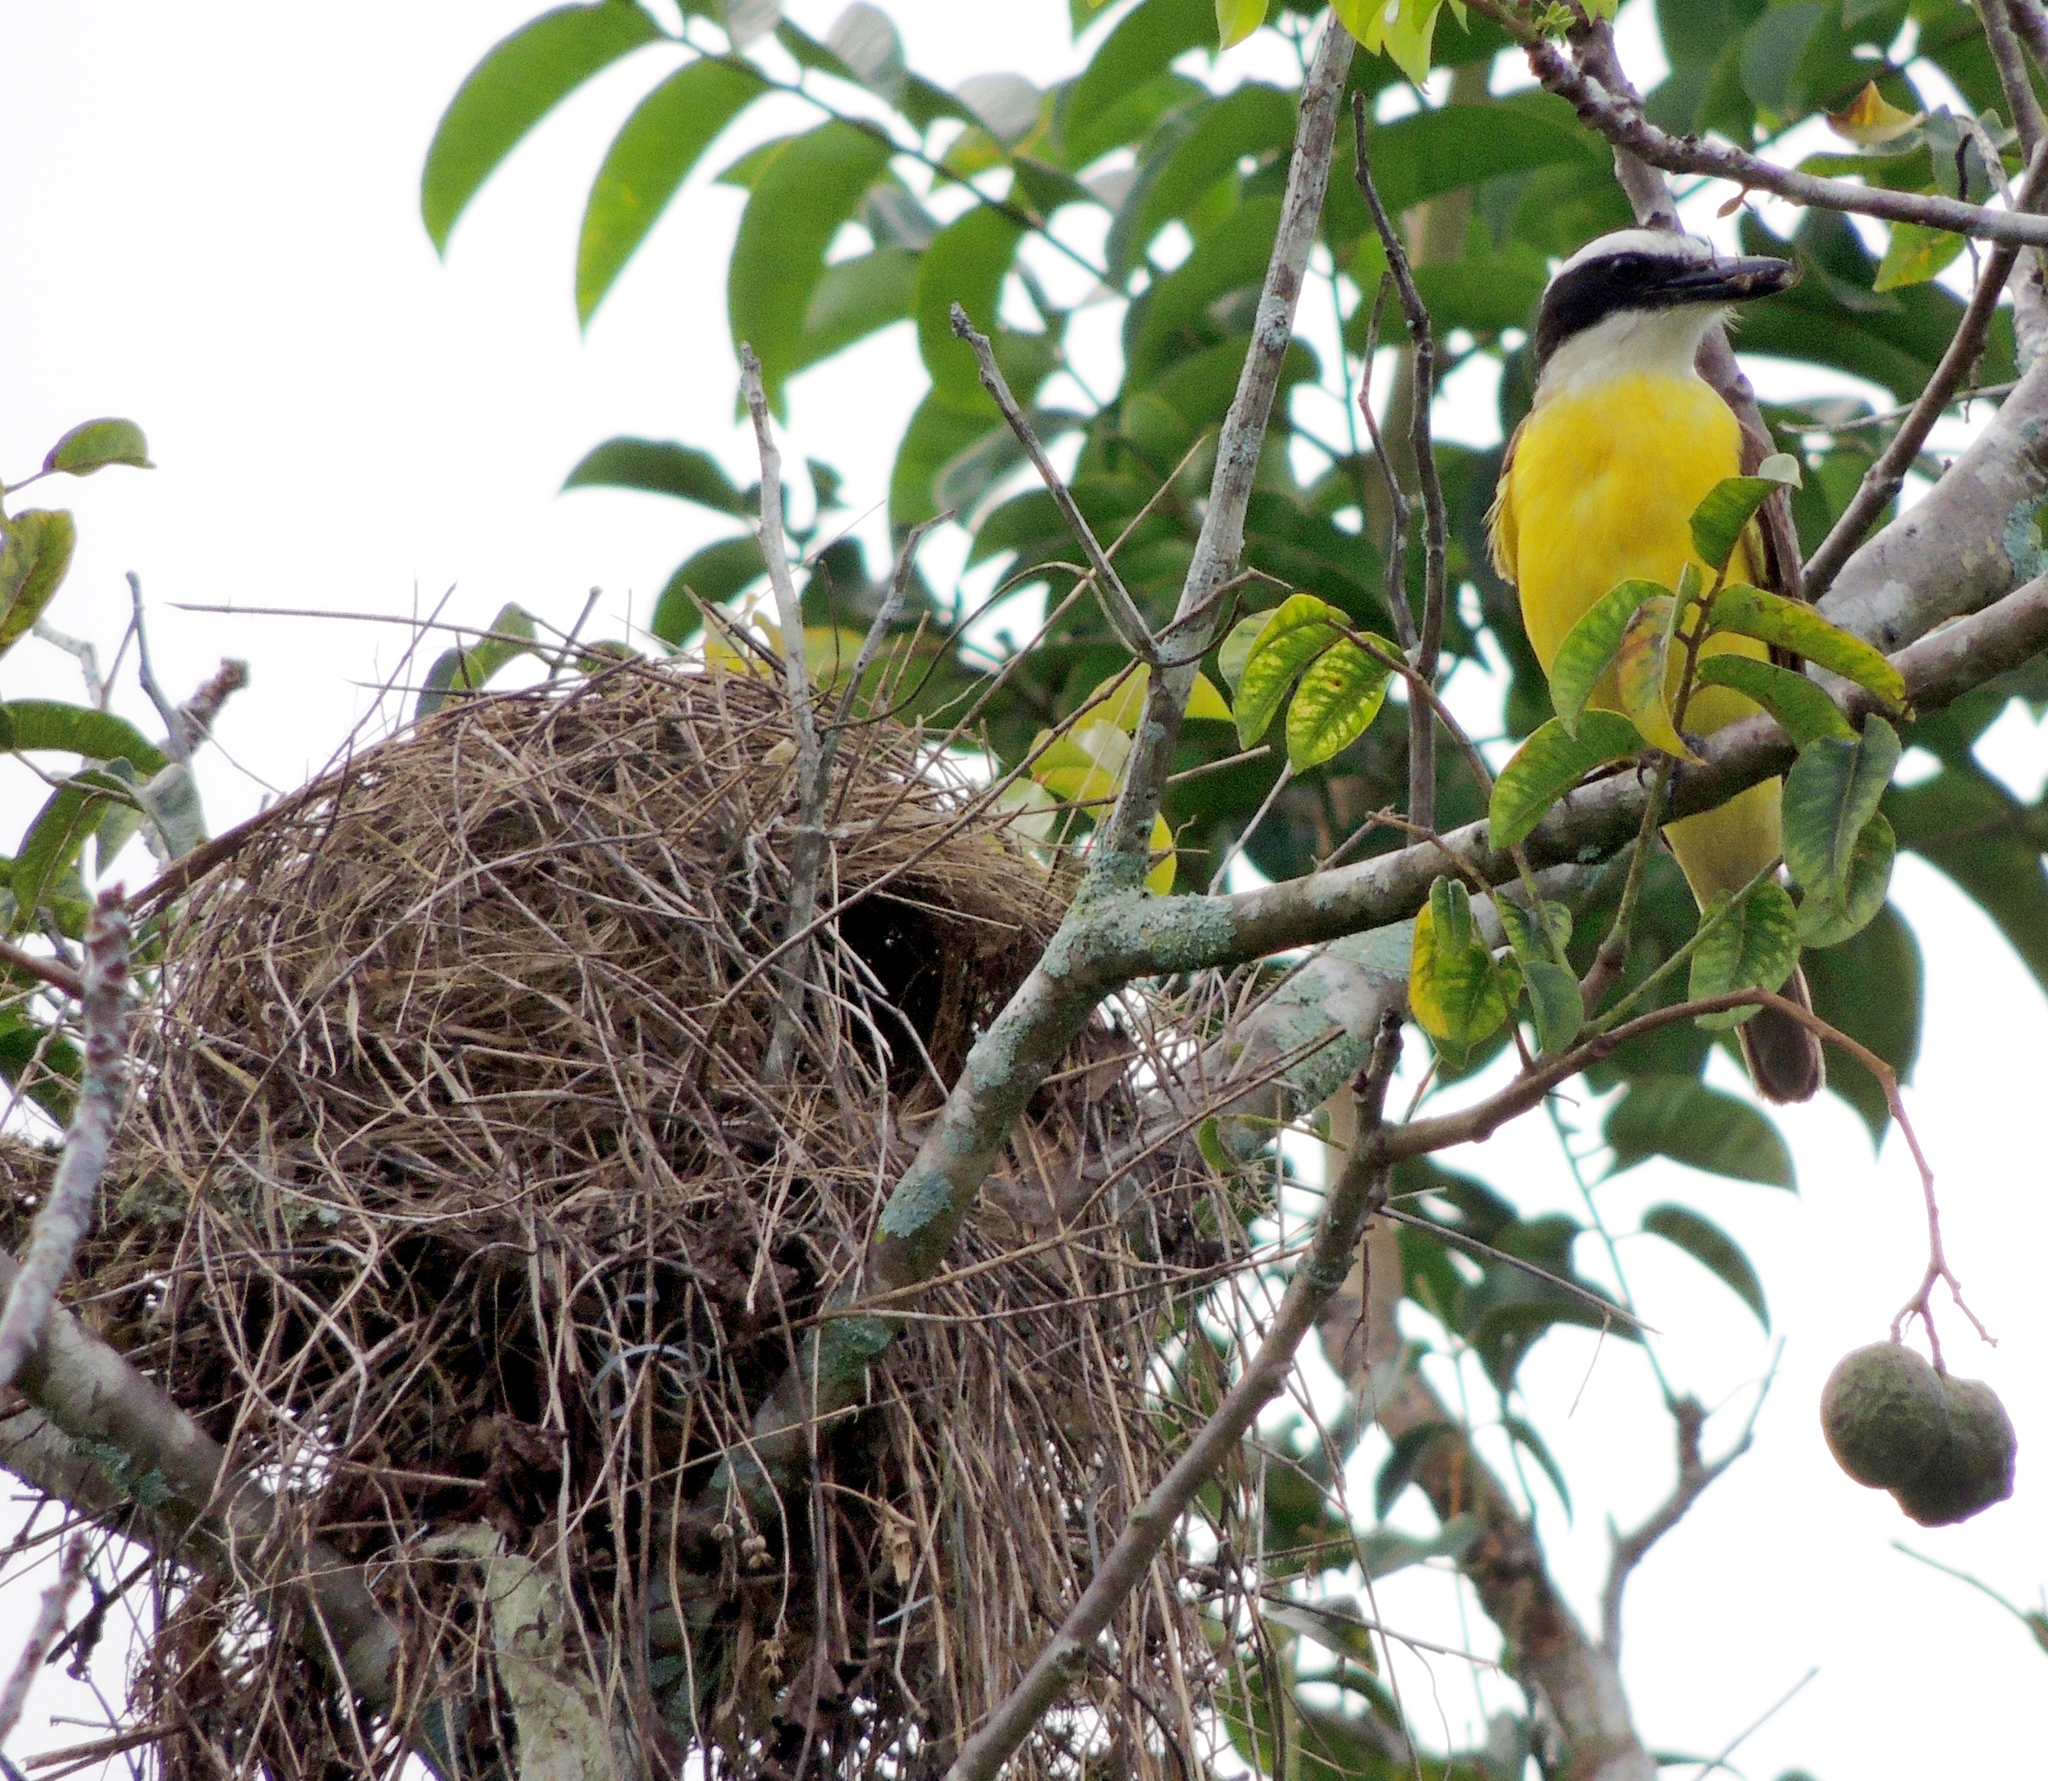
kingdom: Animalia
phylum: Chordata
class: Aves
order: Passeriformes
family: Tyrannidae
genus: Pitangus
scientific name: Pitangus sulphuratus
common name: Great kiskadee
